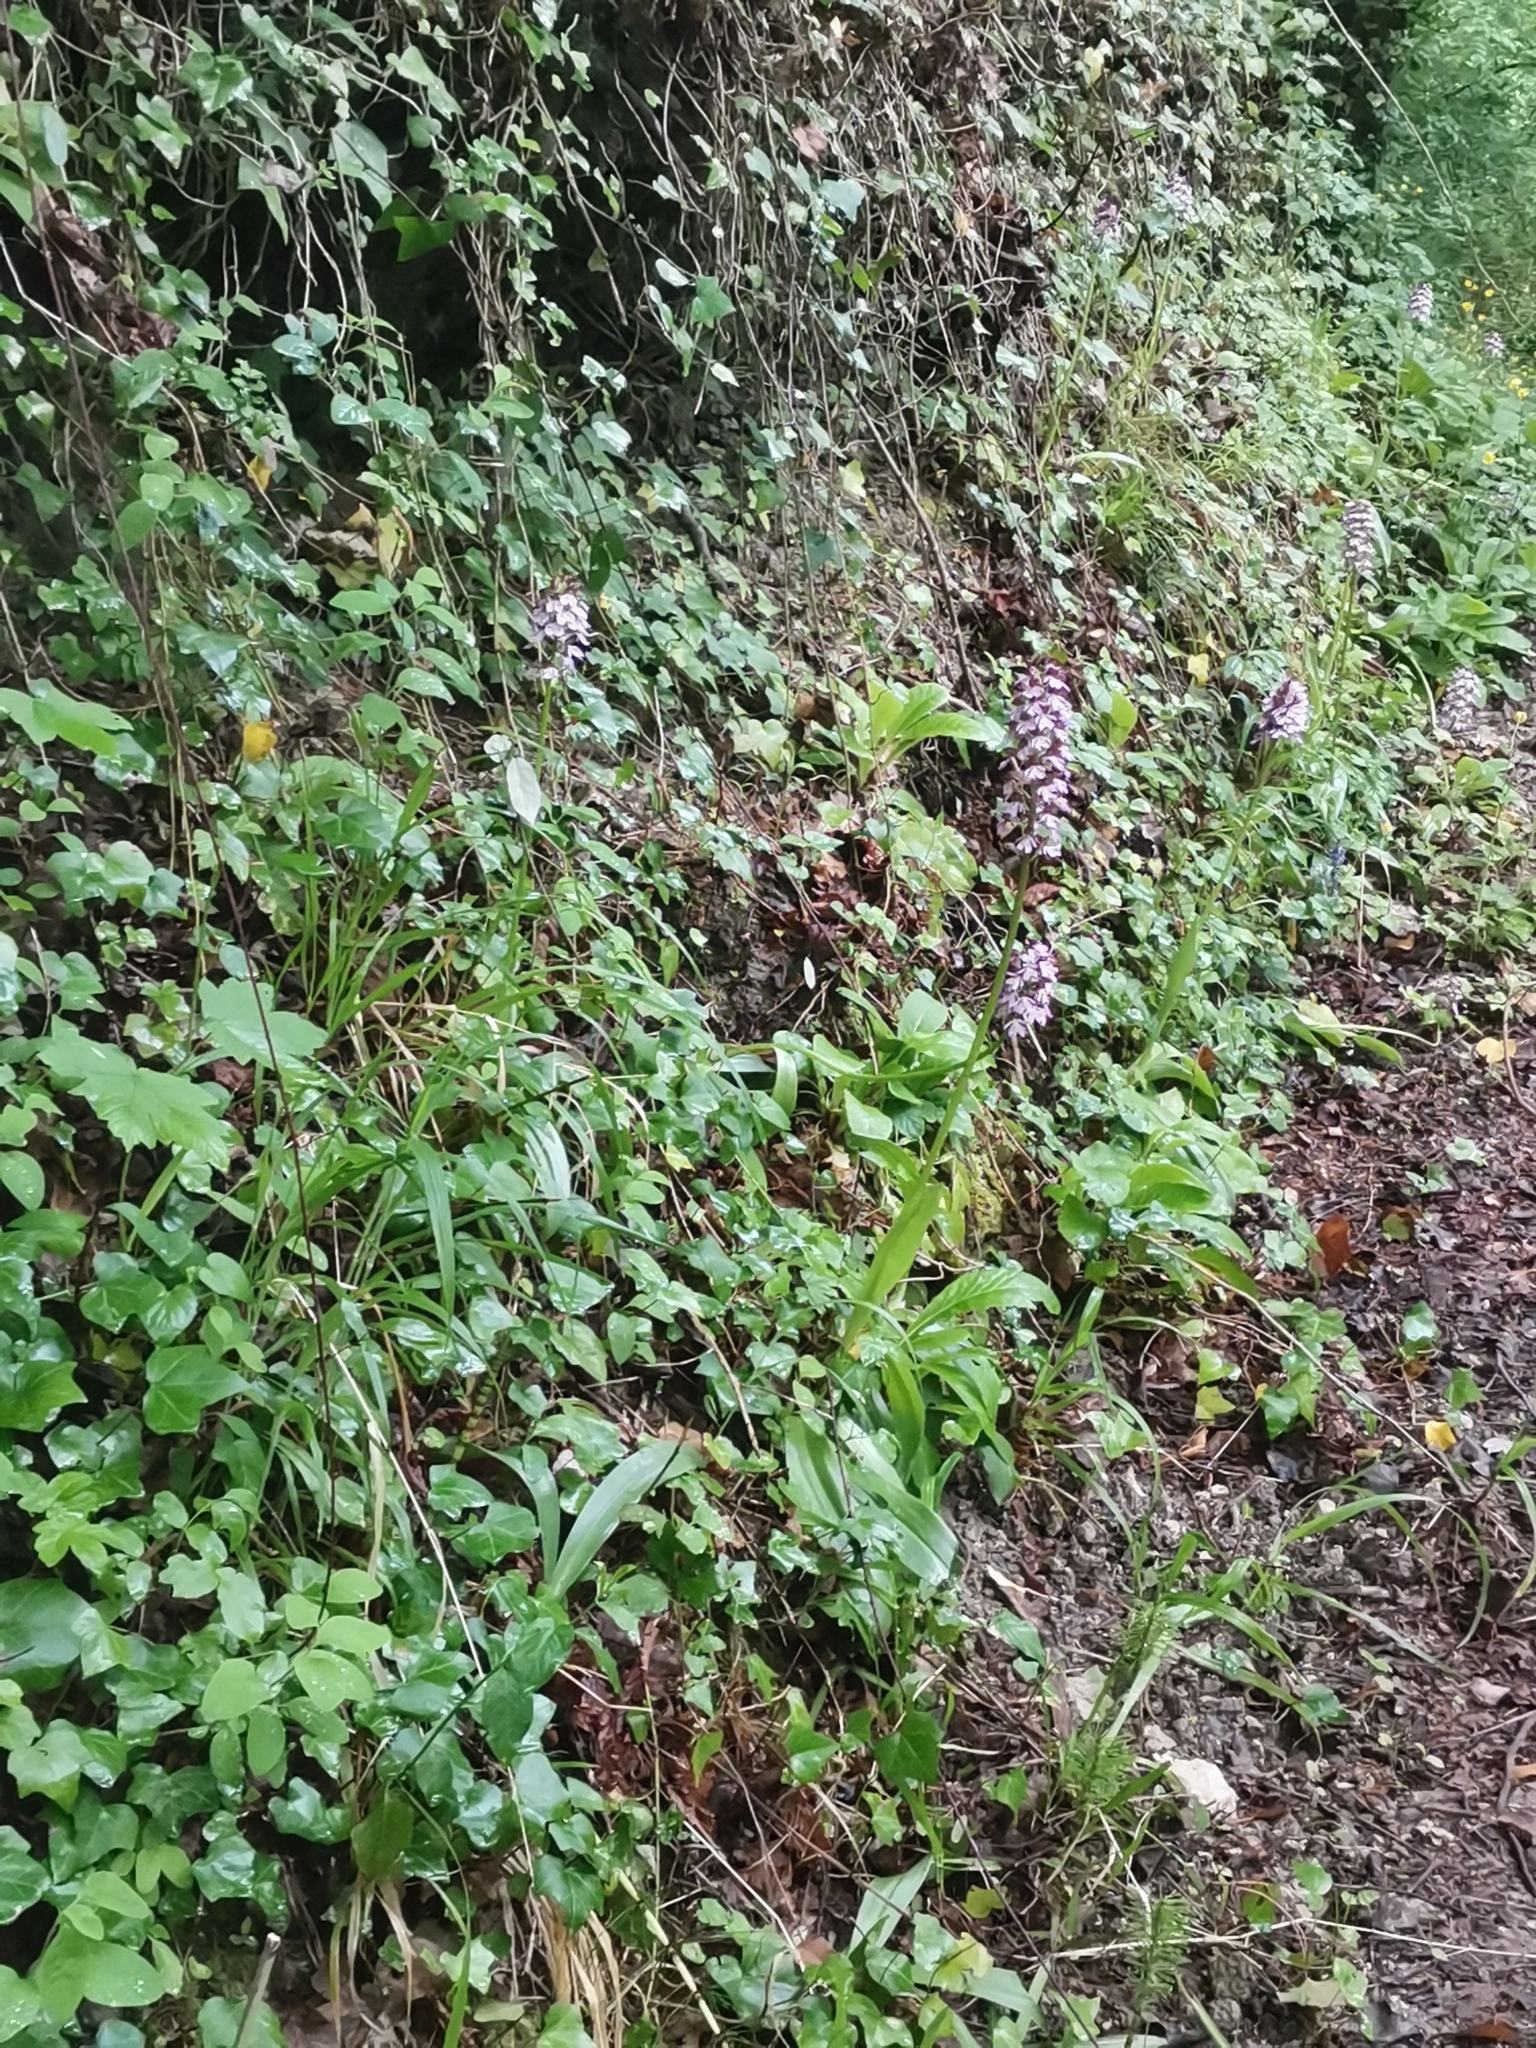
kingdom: Plantae
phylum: Tracheophyta
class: Liliopsida
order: Asparagales
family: Orchidaceae
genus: Orchis
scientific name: Orchis purpurea
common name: Lady orchid
